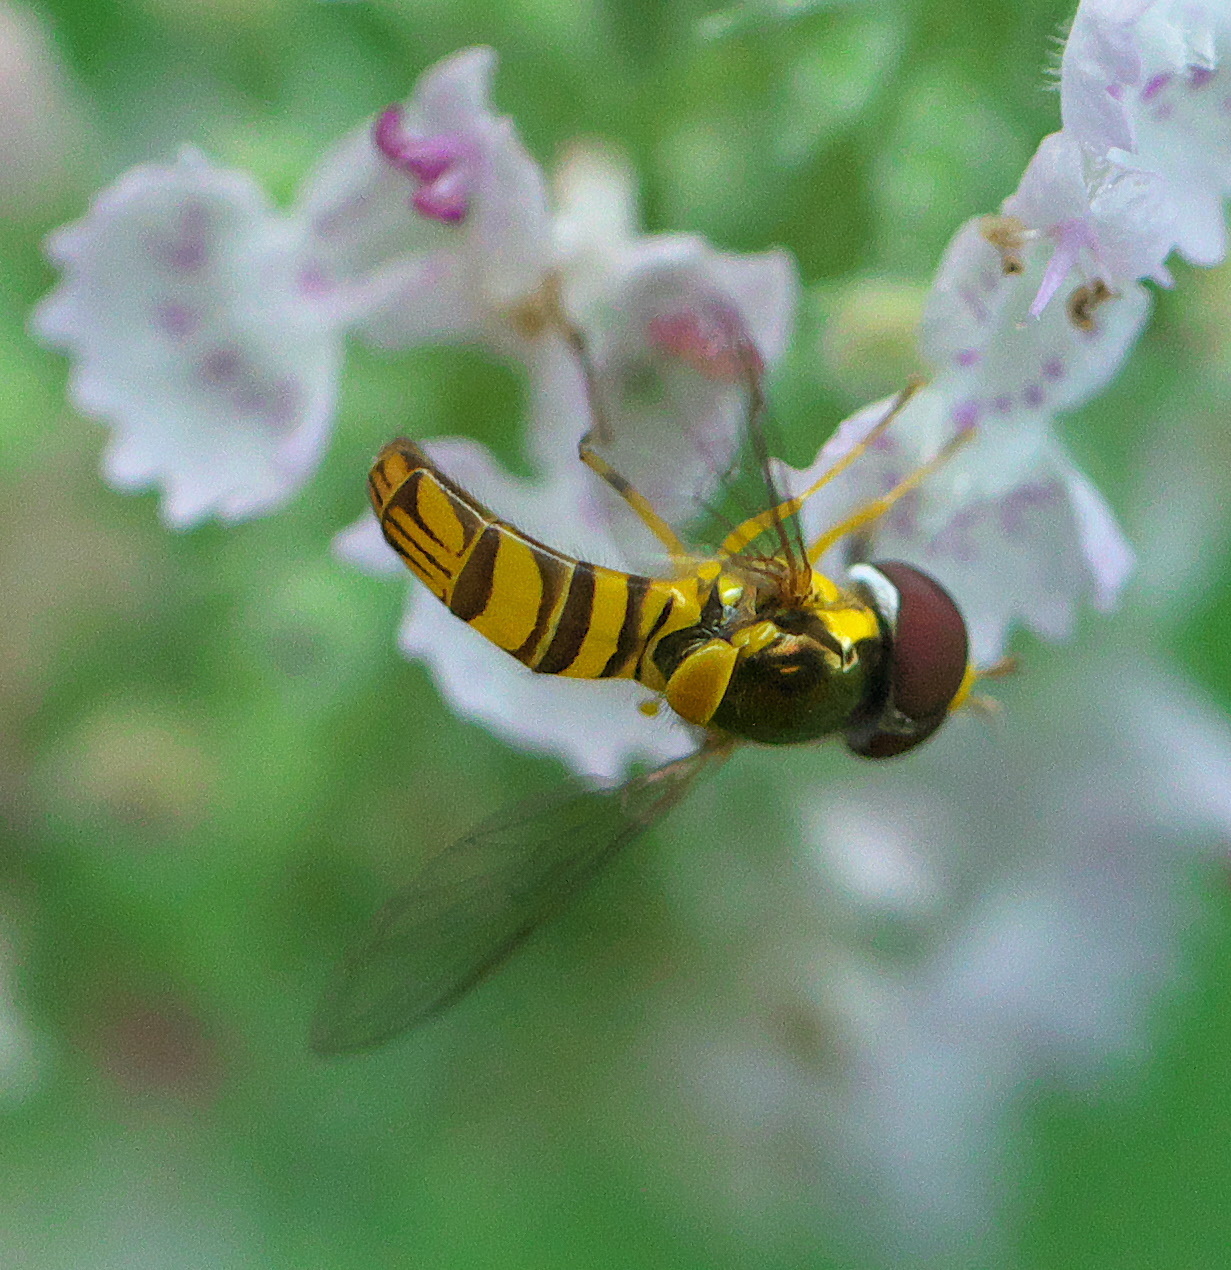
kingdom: Animalia
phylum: Arthropoda
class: Insecta
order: Diptera
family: Syrphidae
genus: Allograpta
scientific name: Allograpta obliqua
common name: Common oblique syrphid
